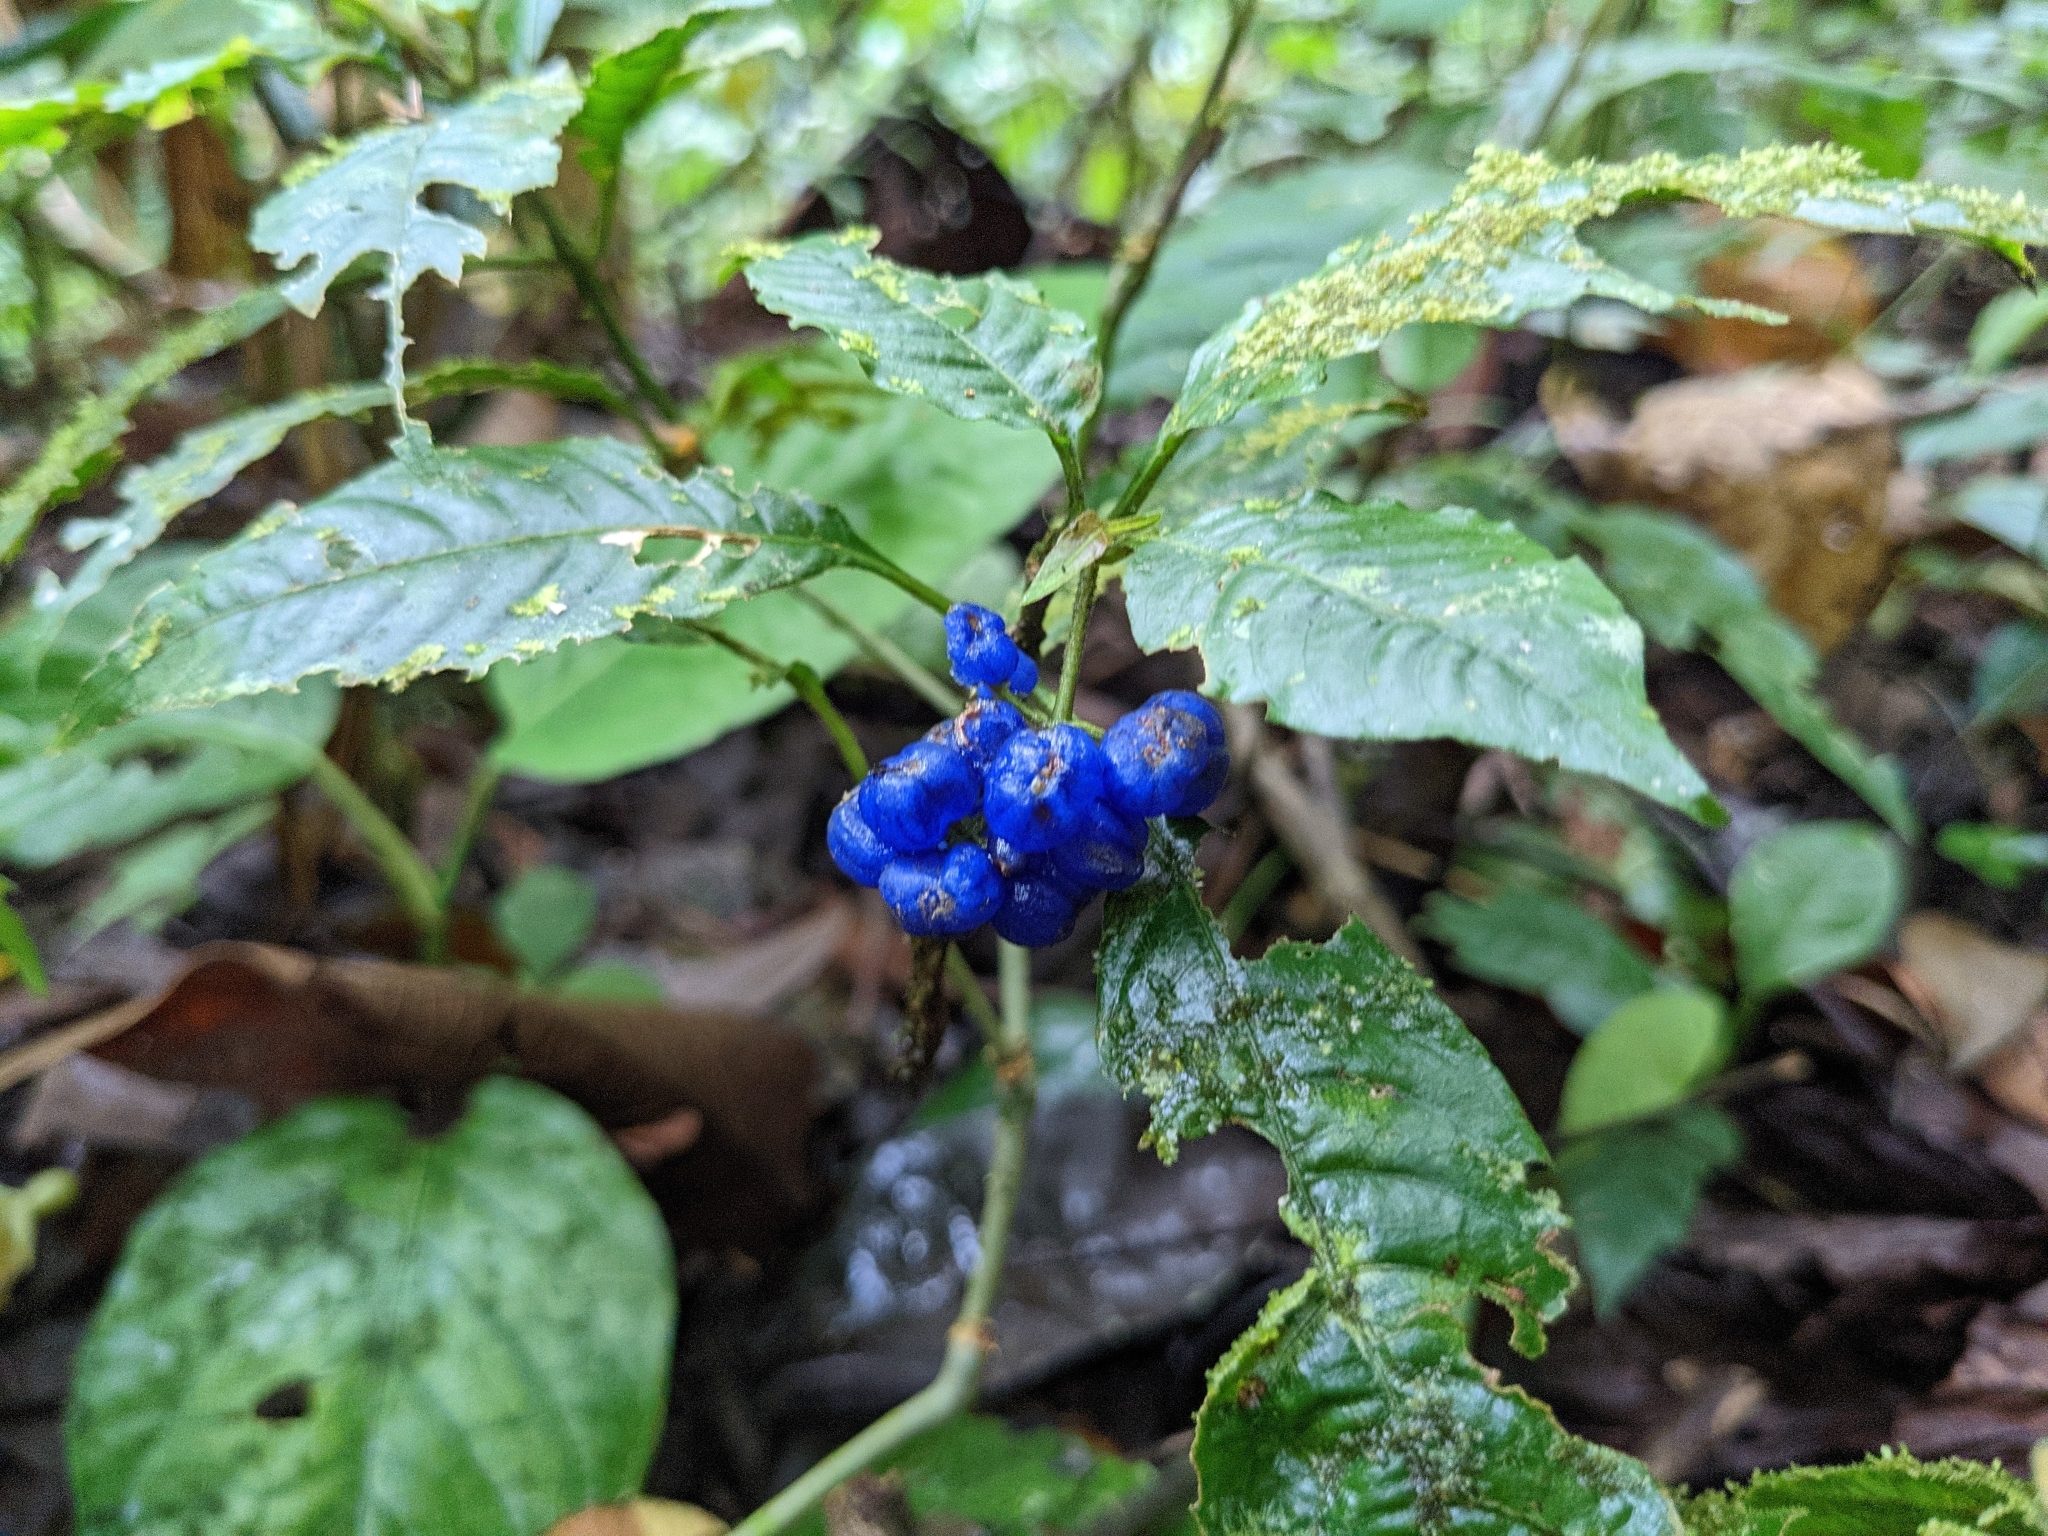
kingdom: Plantae
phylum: Tracheophyta
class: Magnoliopsida
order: Gentianales
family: Rubiaceae
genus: Palicourea
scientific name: Palicourea cyanococca
